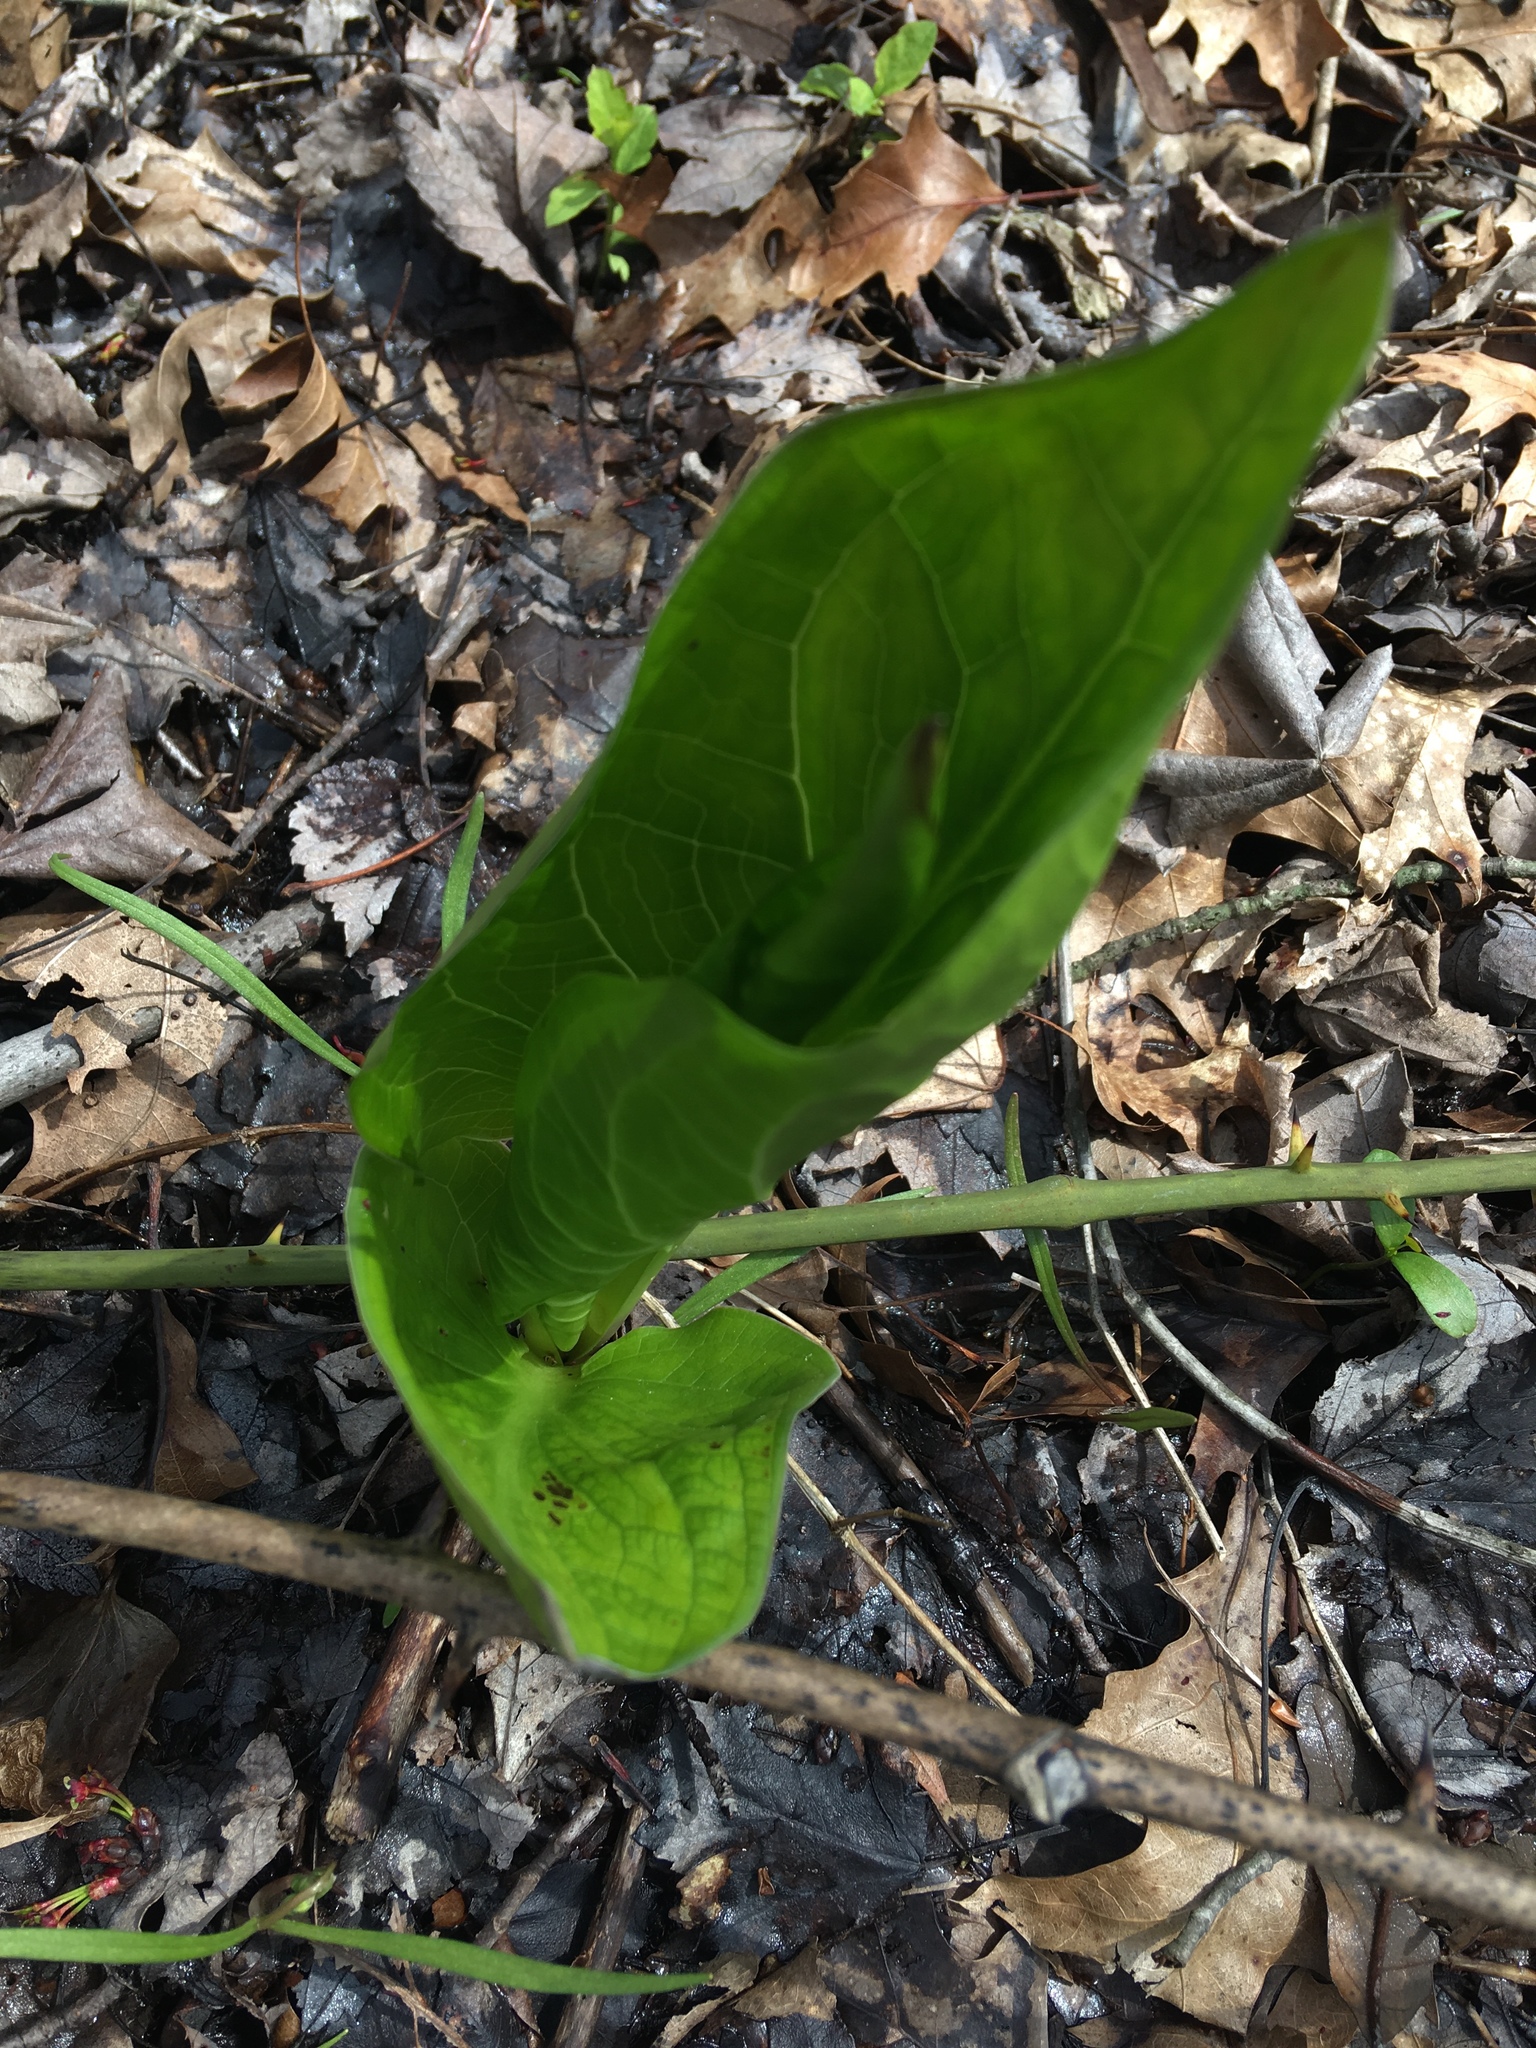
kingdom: Plantae
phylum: Tracheophyta
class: Liliopsida
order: Alismatales
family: Araceae
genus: Symplocarpus
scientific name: Symplocarpus foetidus
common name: Eastern skunk cabbage
